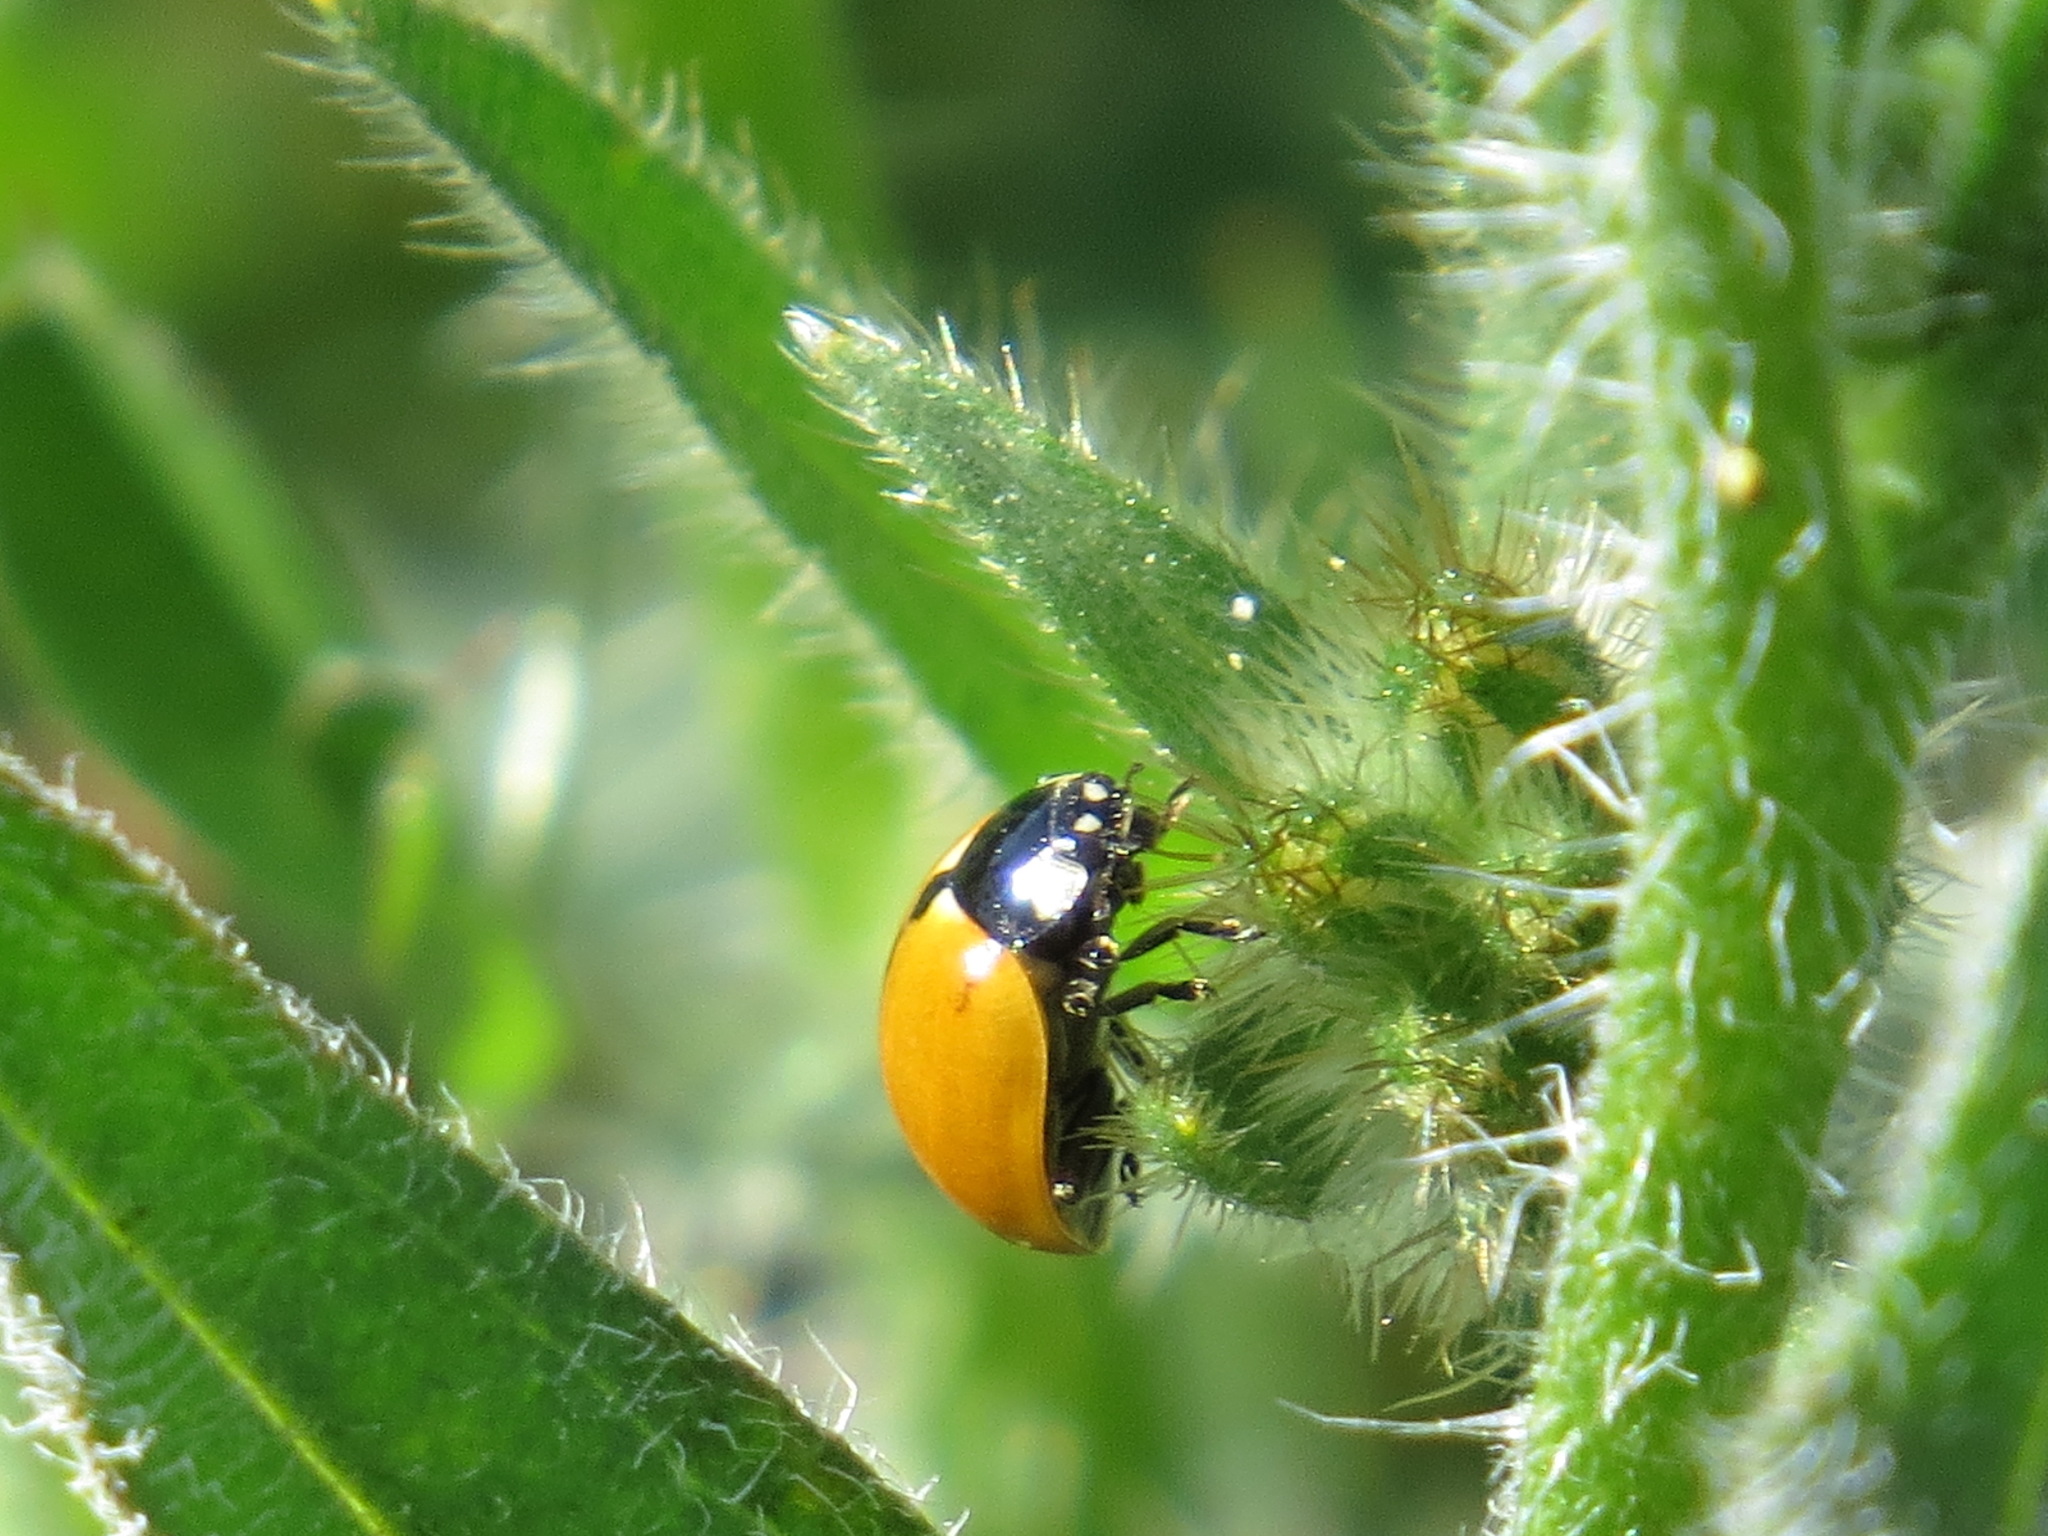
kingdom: Animalia
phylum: Arthropoda
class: Insecta
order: Coleoptera
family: Coccinellidae
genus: Coccinella
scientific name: Coccinella californica
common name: Lady beetle
